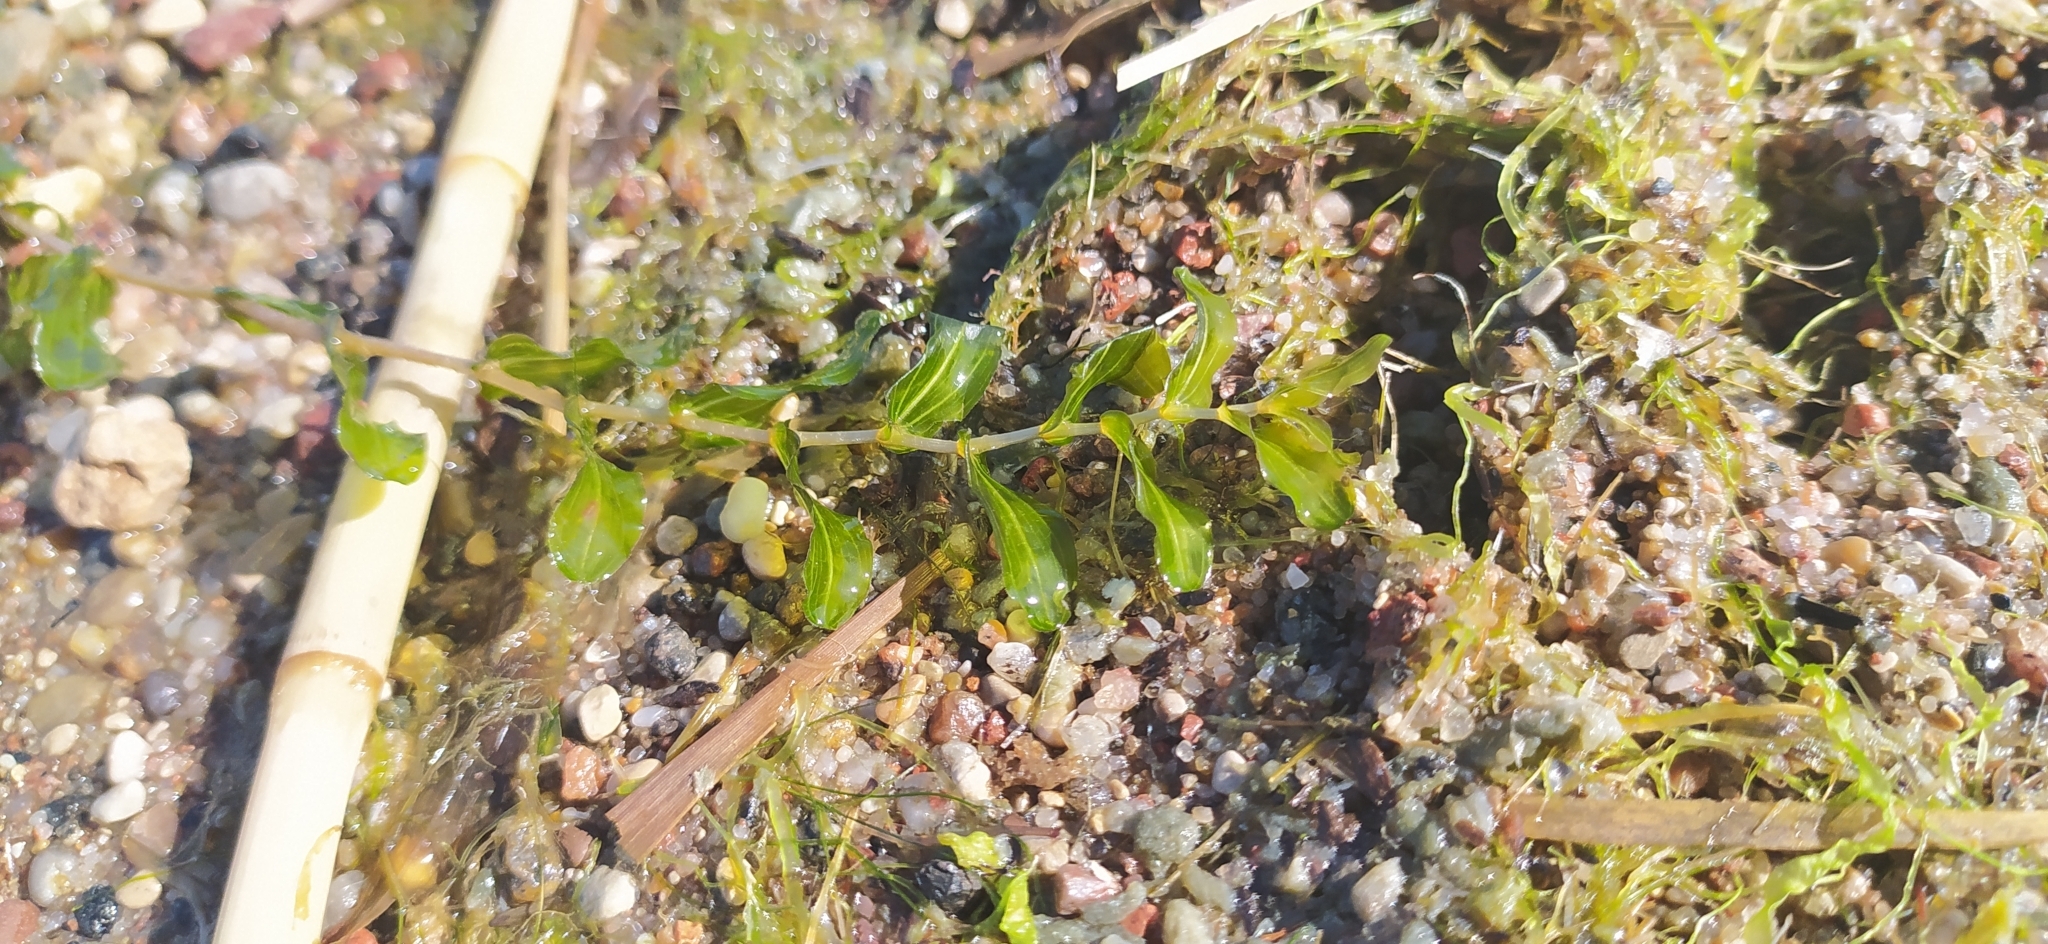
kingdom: Plantae
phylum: Tracheophyta
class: Liliopsida
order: Alismatales
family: Potamogetonaceae
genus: Potamogeton
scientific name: Potamogeton perfoliatus
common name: Perfoliate pondweed
